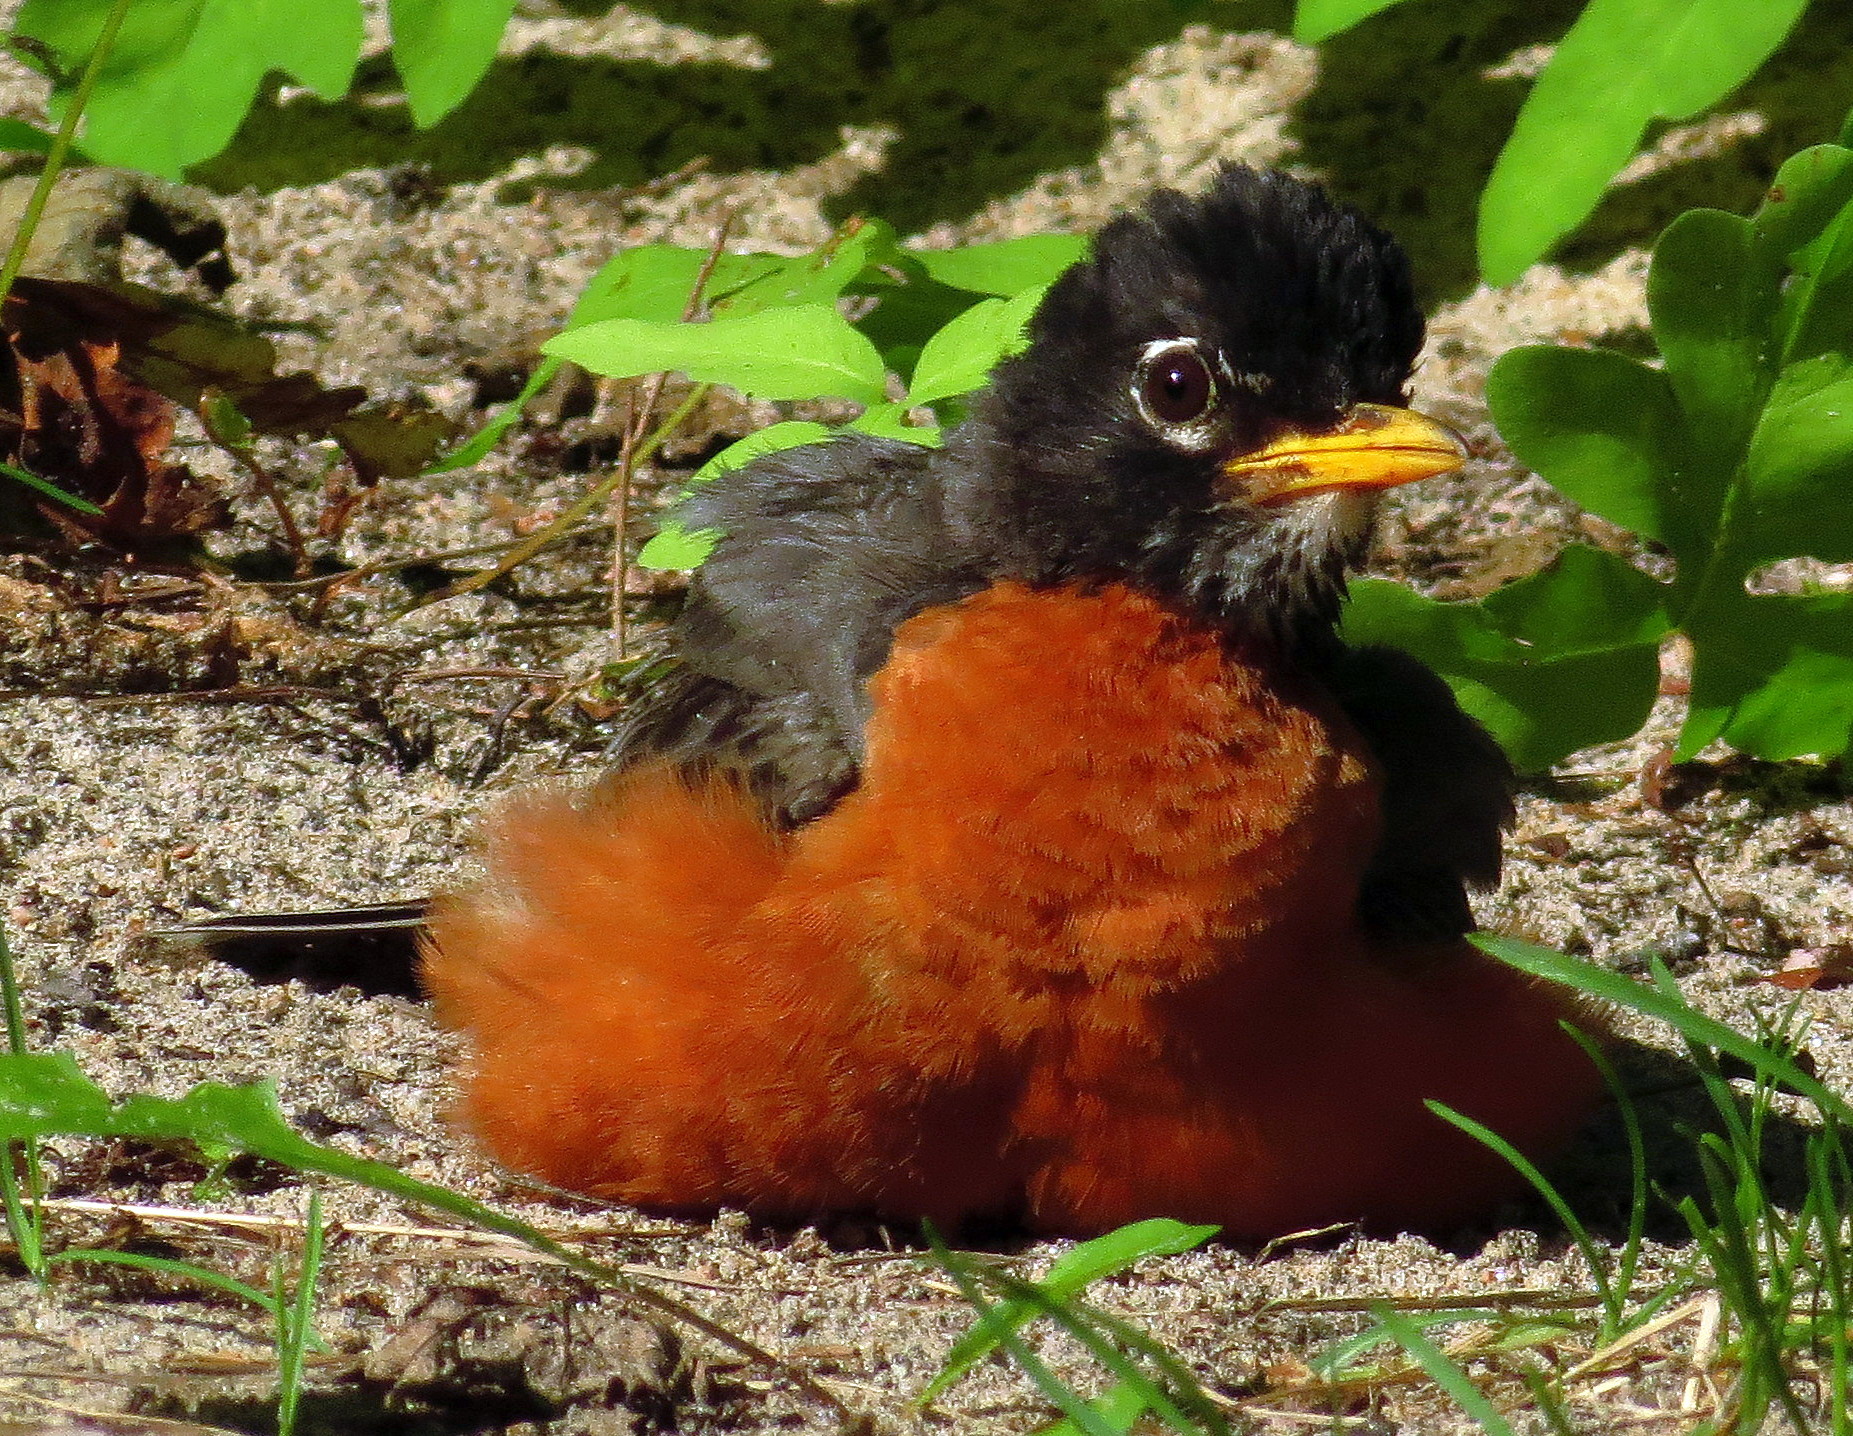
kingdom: Animalia
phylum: Chordata
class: Aves
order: Passeriformes
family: Turdidae
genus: Turdus
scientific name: Turdus migratorius
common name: American robin
